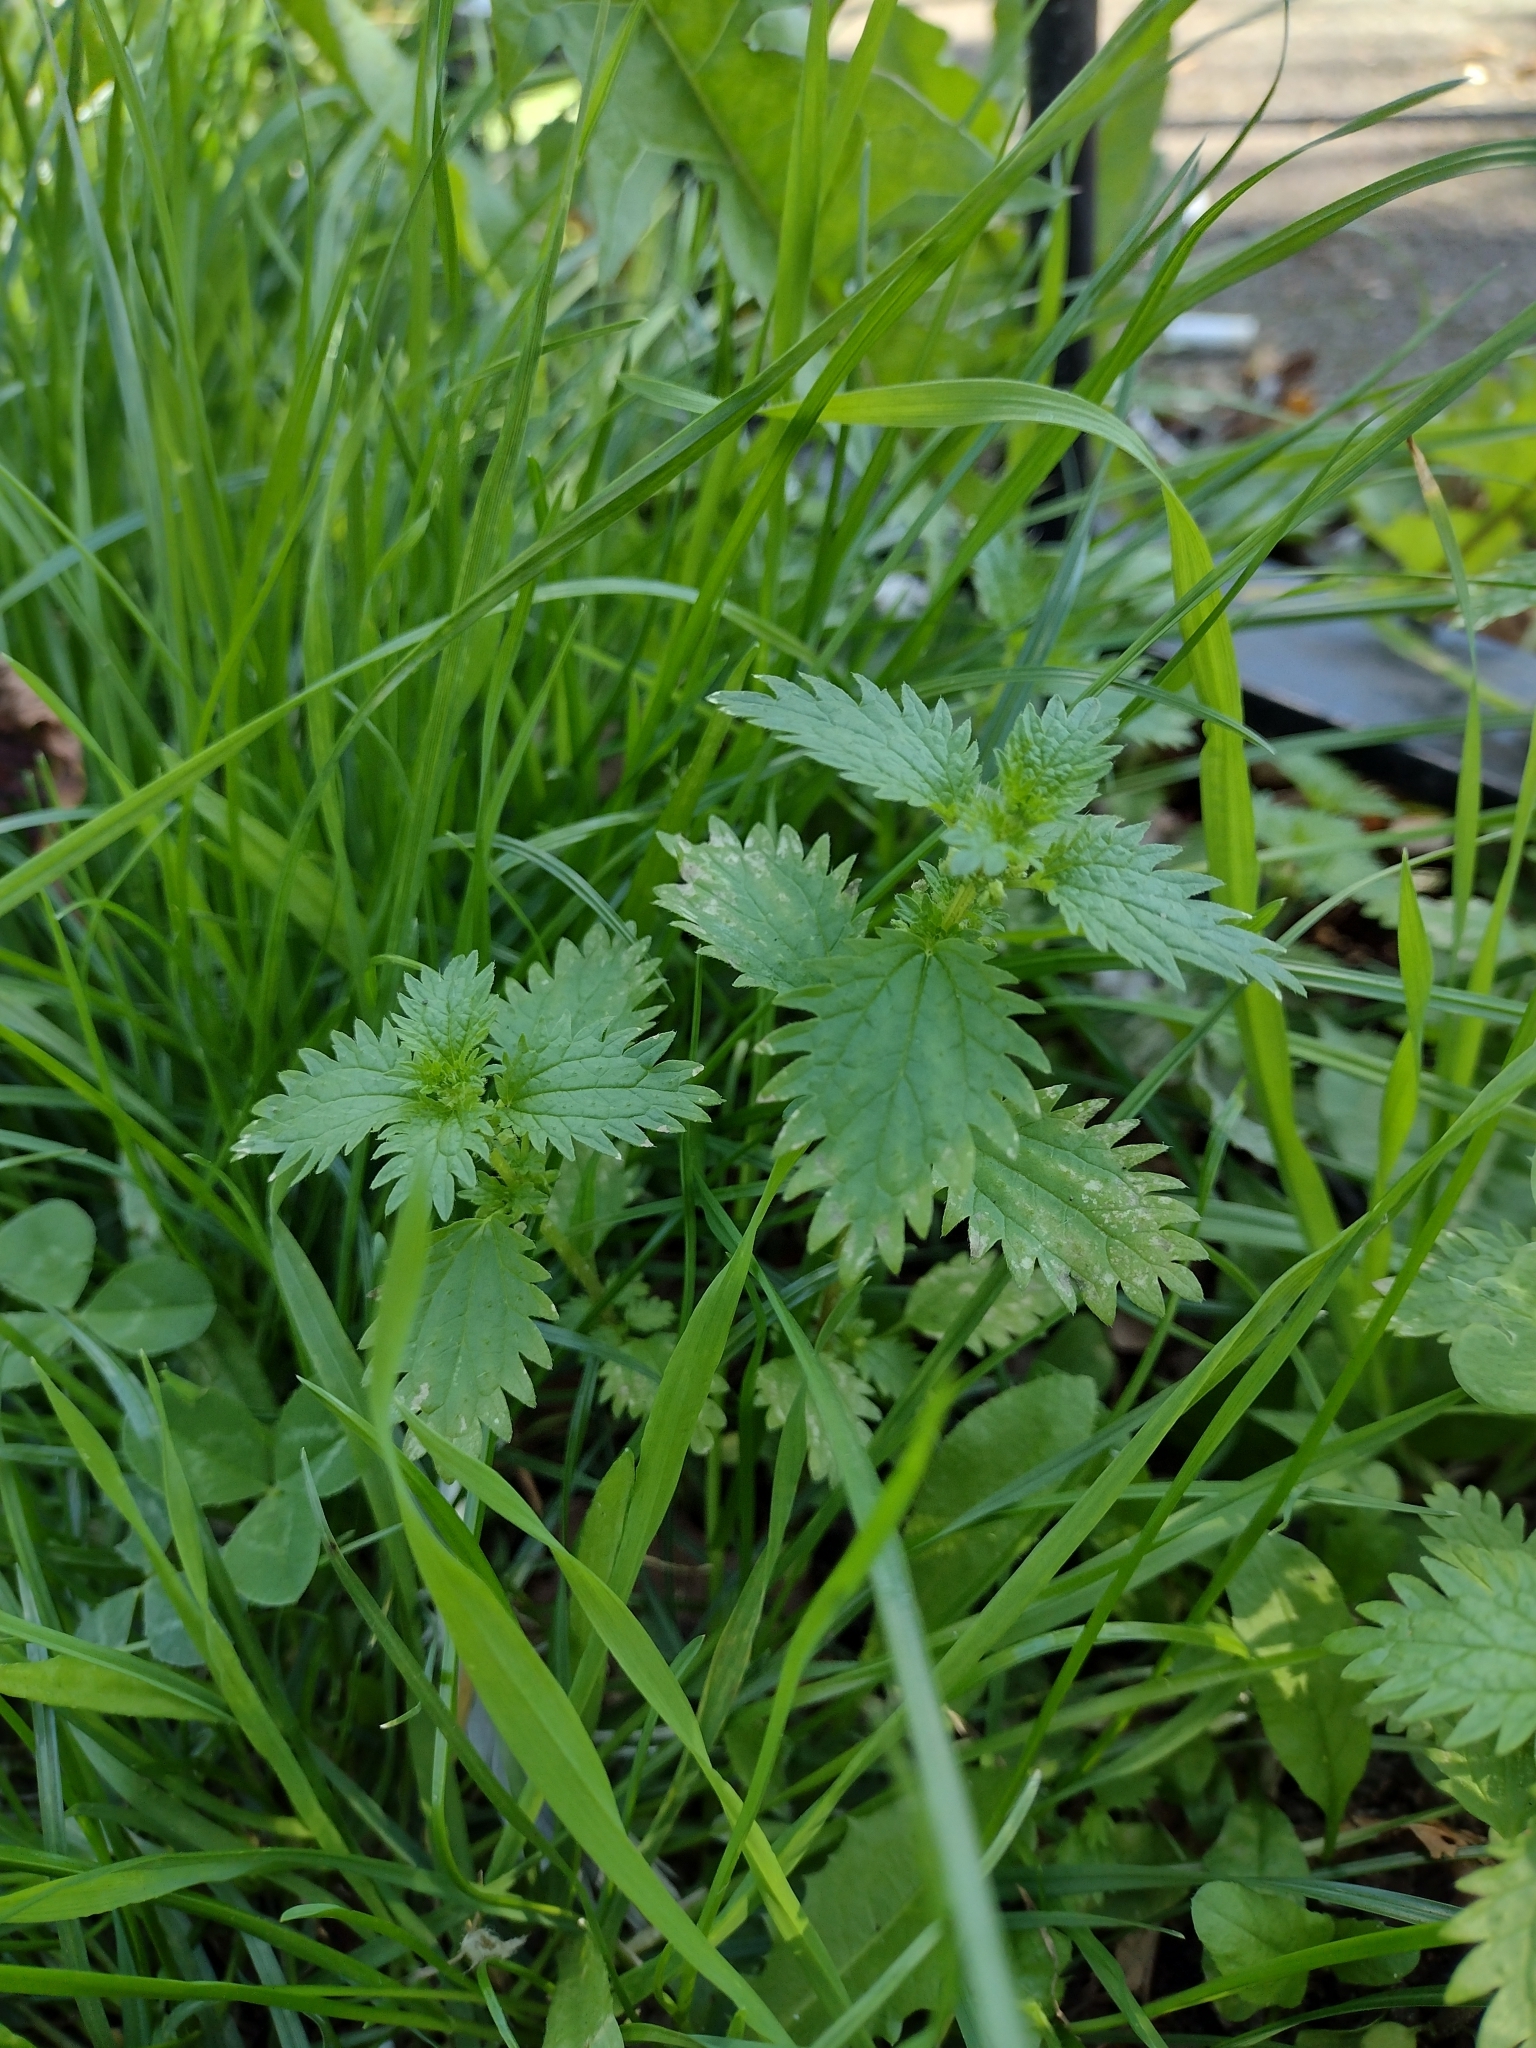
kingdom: Plantae
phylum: Tracheophyta
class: Magnoliopsida
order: Rosales
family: Urticaceae
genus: Urtica
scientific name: Urtica urens
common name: Dwarf nettle
